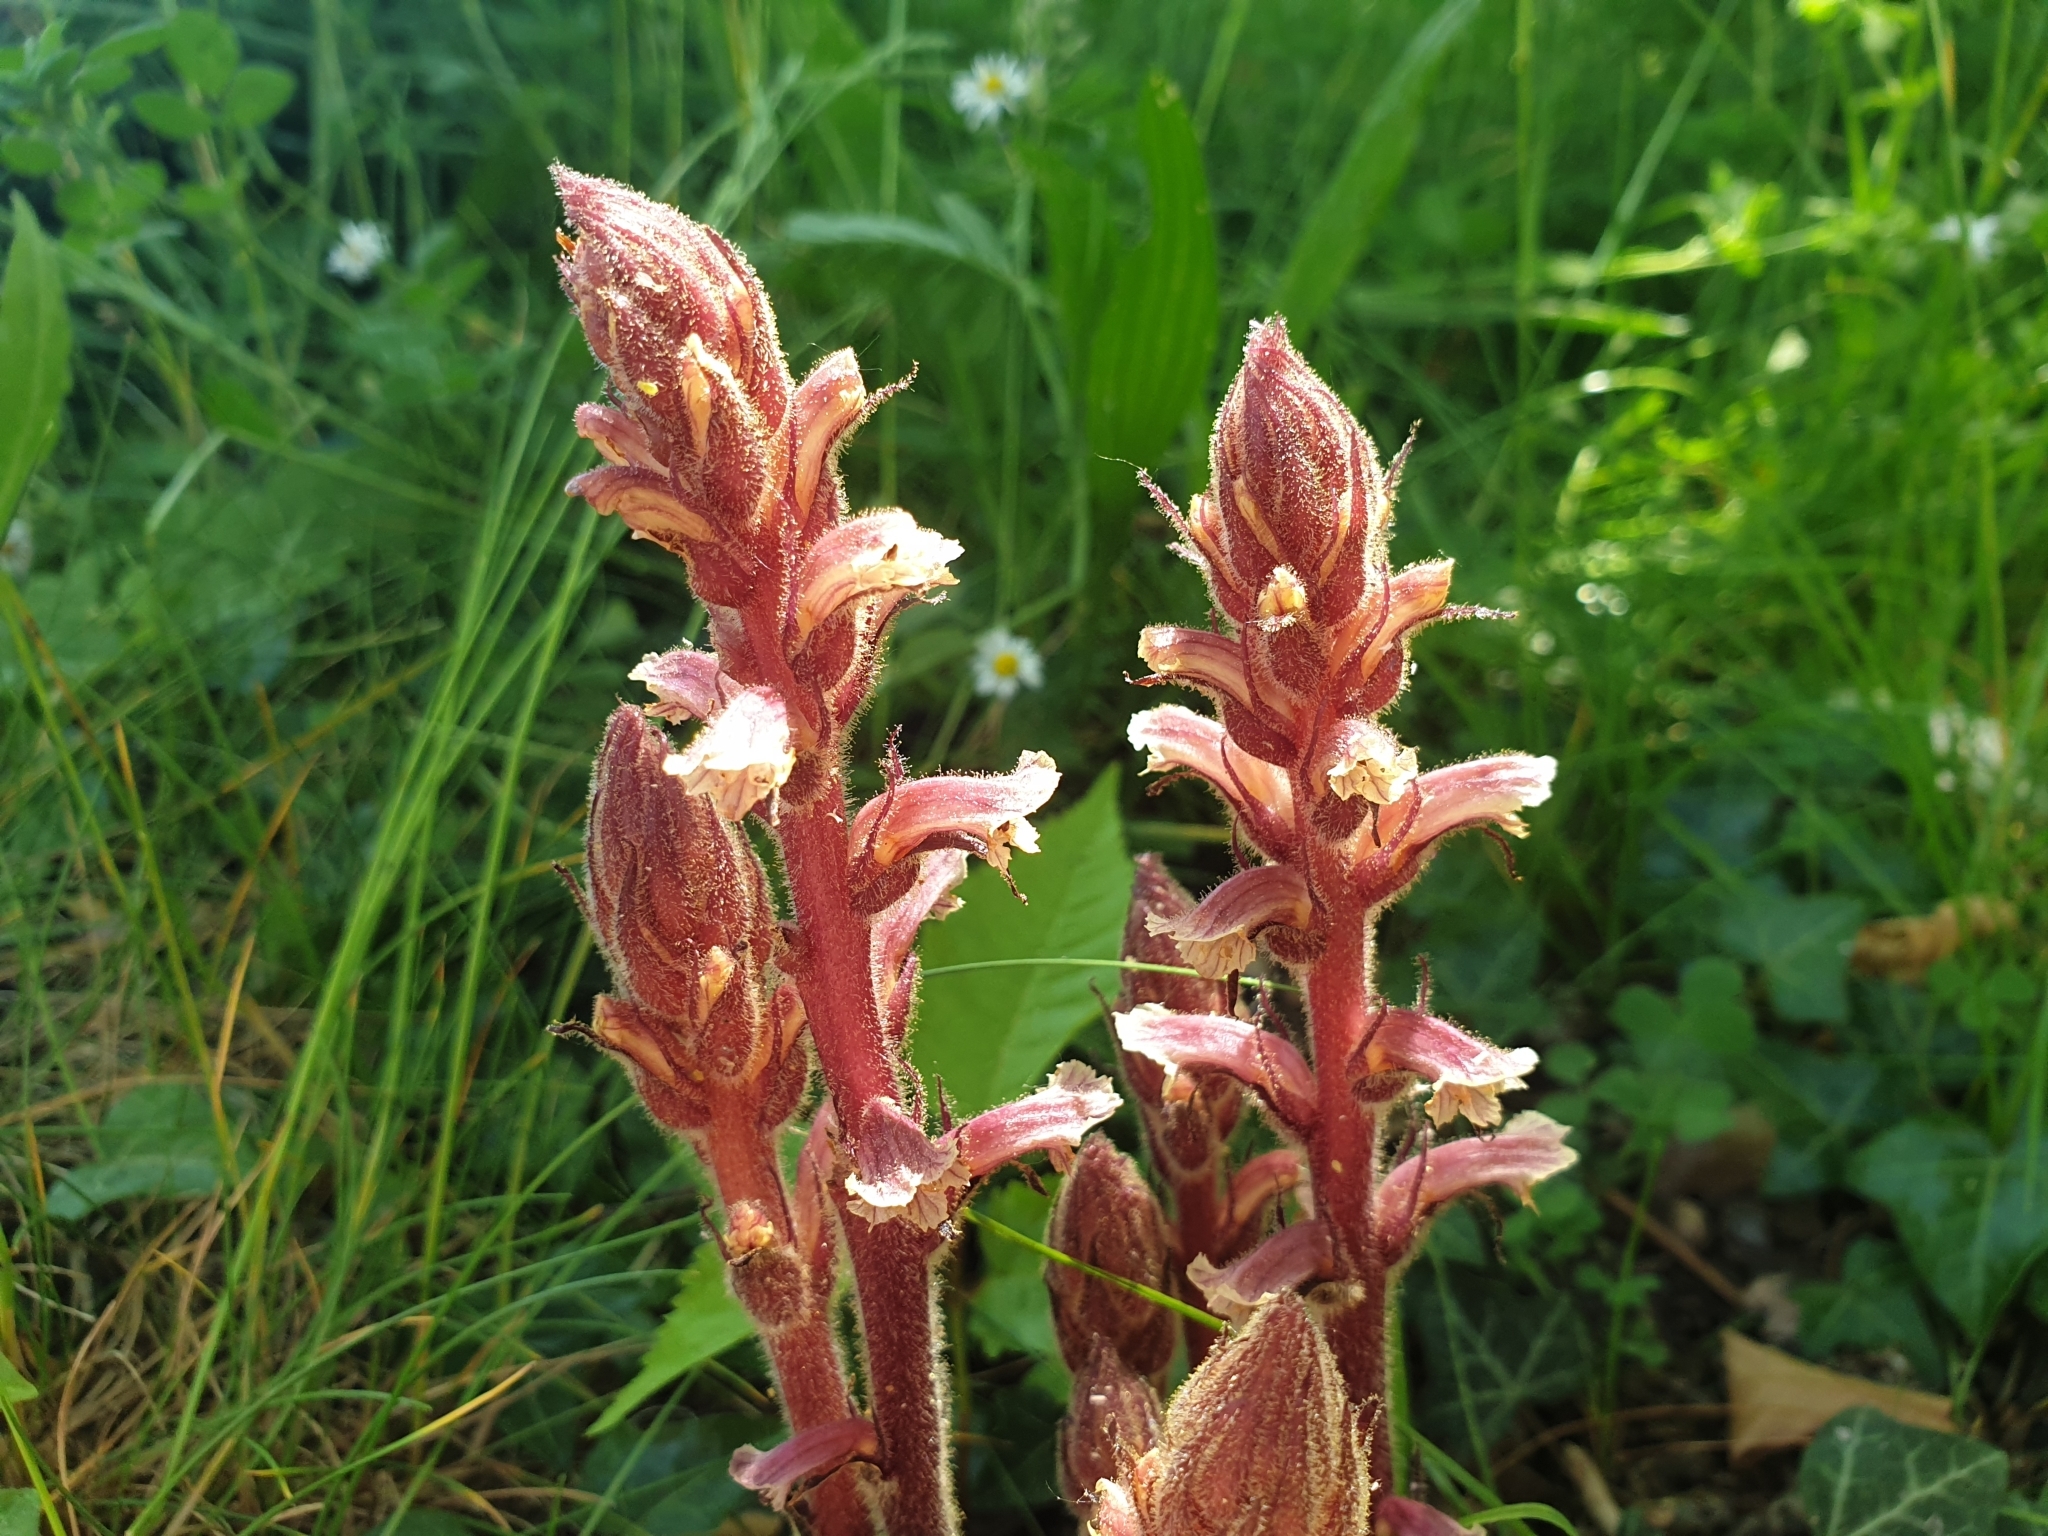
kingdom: Plantae
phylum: Tracheophyta
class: Magnoliopsida
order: Lamiales
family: Orobanchaceae
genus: Orobanche
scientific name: Orobanche hederae
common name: Ivy broomrape
